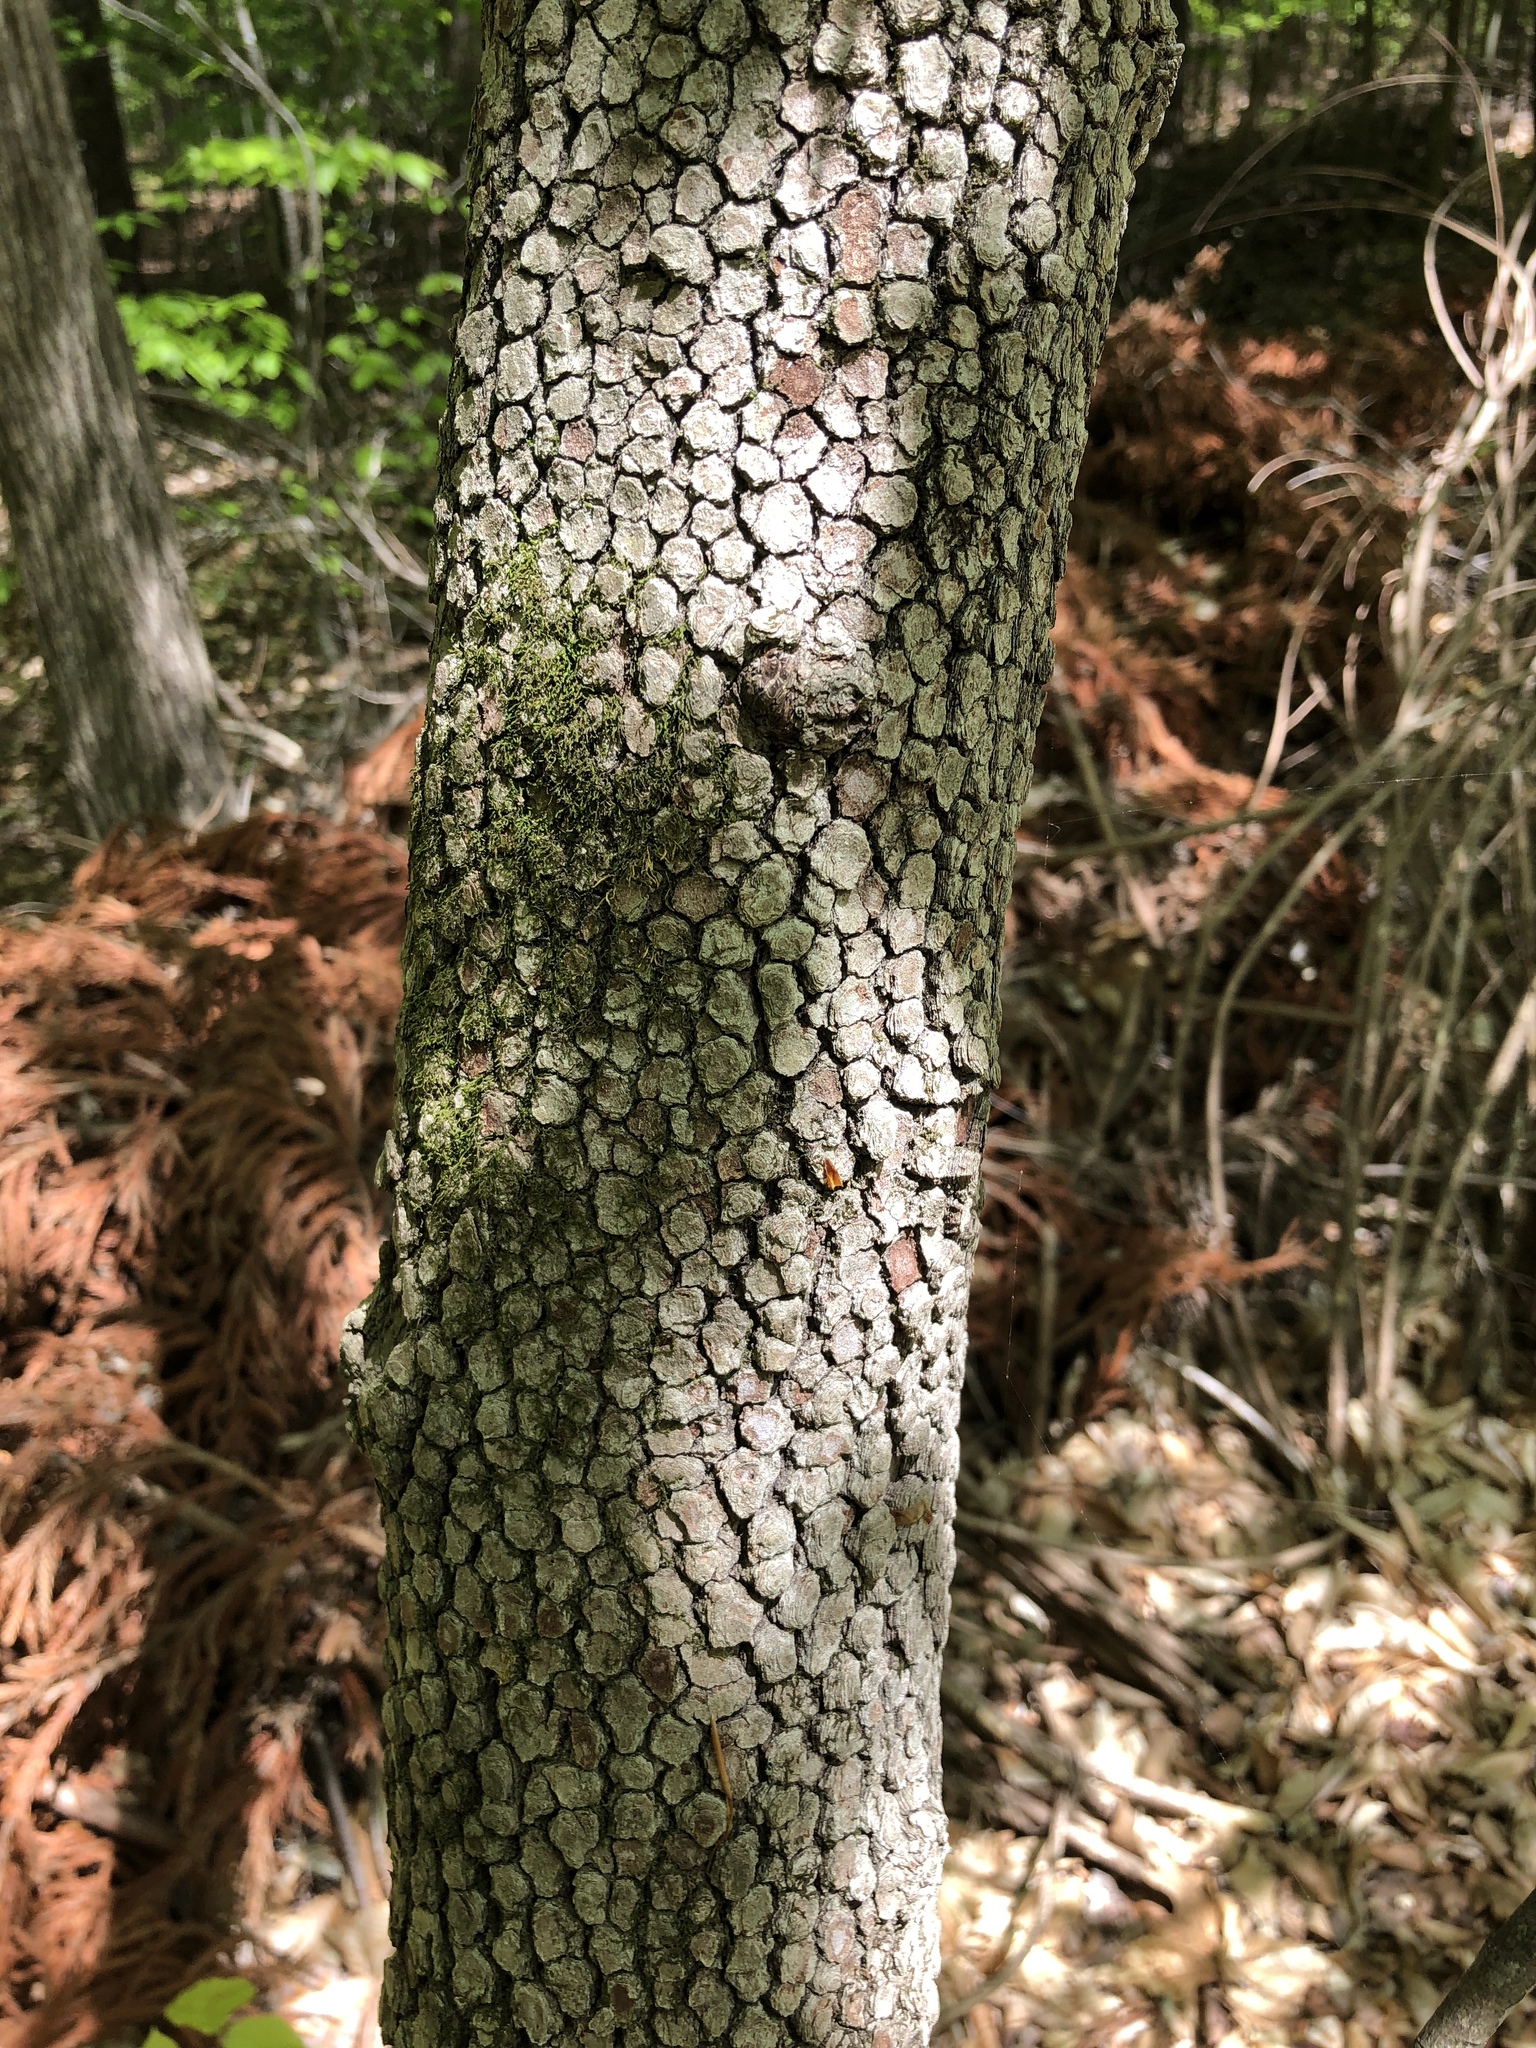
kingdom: Plantae
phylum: Tracheophyta
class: Magnoliopsida
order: Cornales
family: Cornaceae
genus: Cornus
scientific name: Cornus florida
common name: Flowering dogwood
